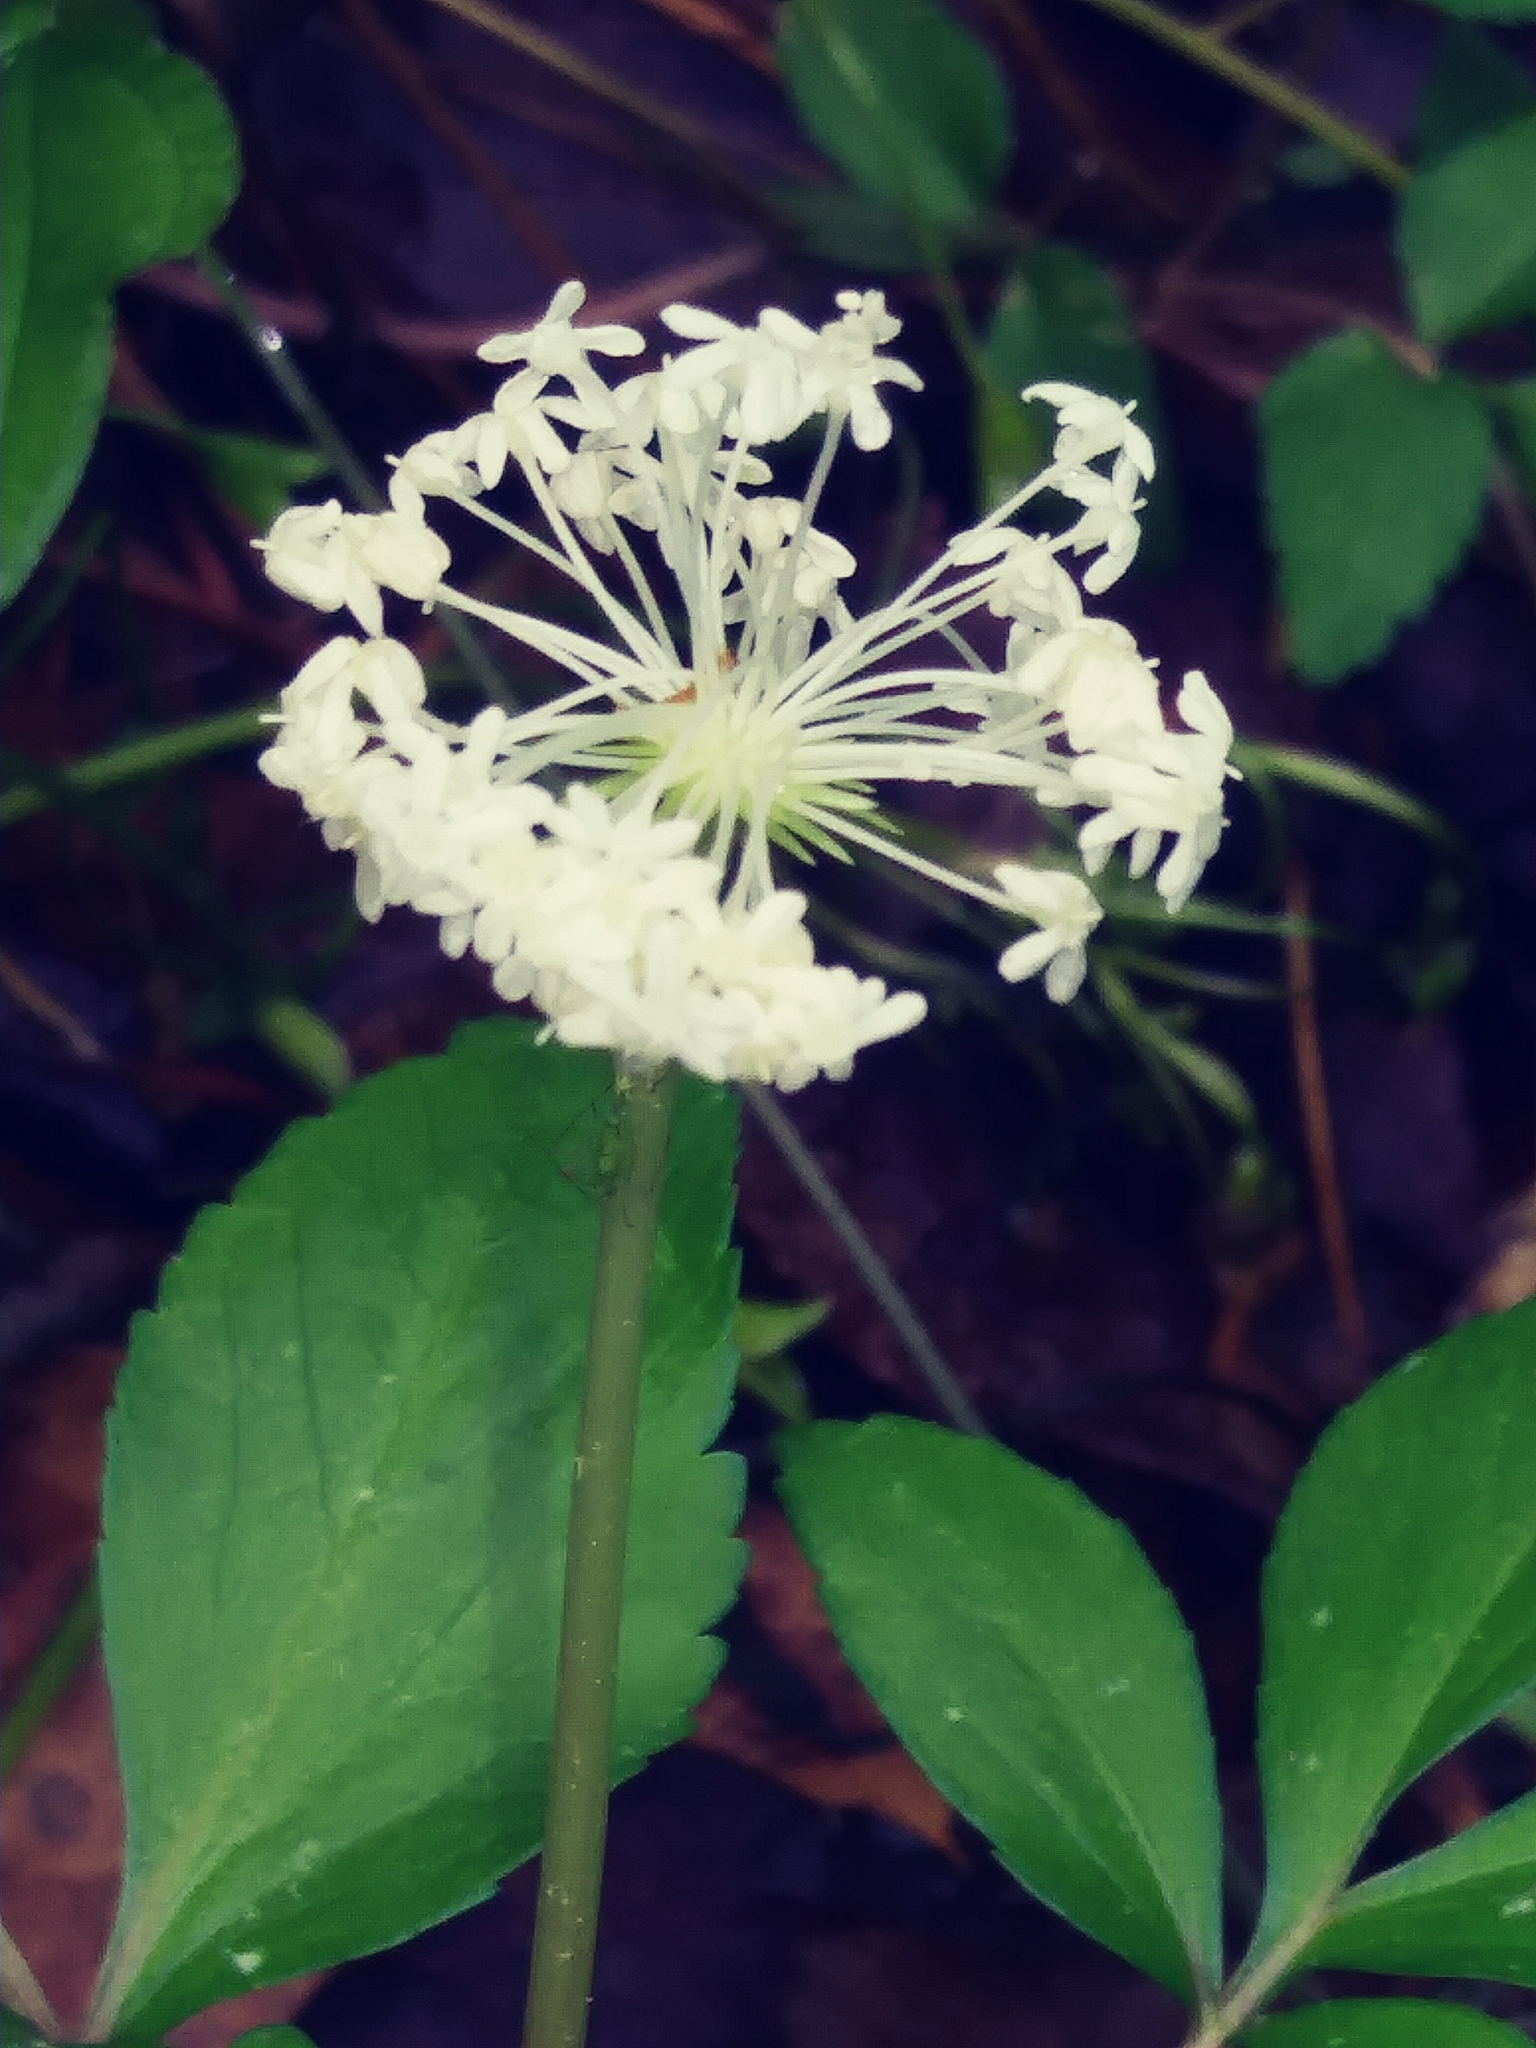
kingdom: Plantae
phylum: Tracheophyta
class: Magnoliopsida
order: Apiales
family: Araliaceae
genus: Panax
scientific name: Panax trifolius
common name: Dwarf ginseng
